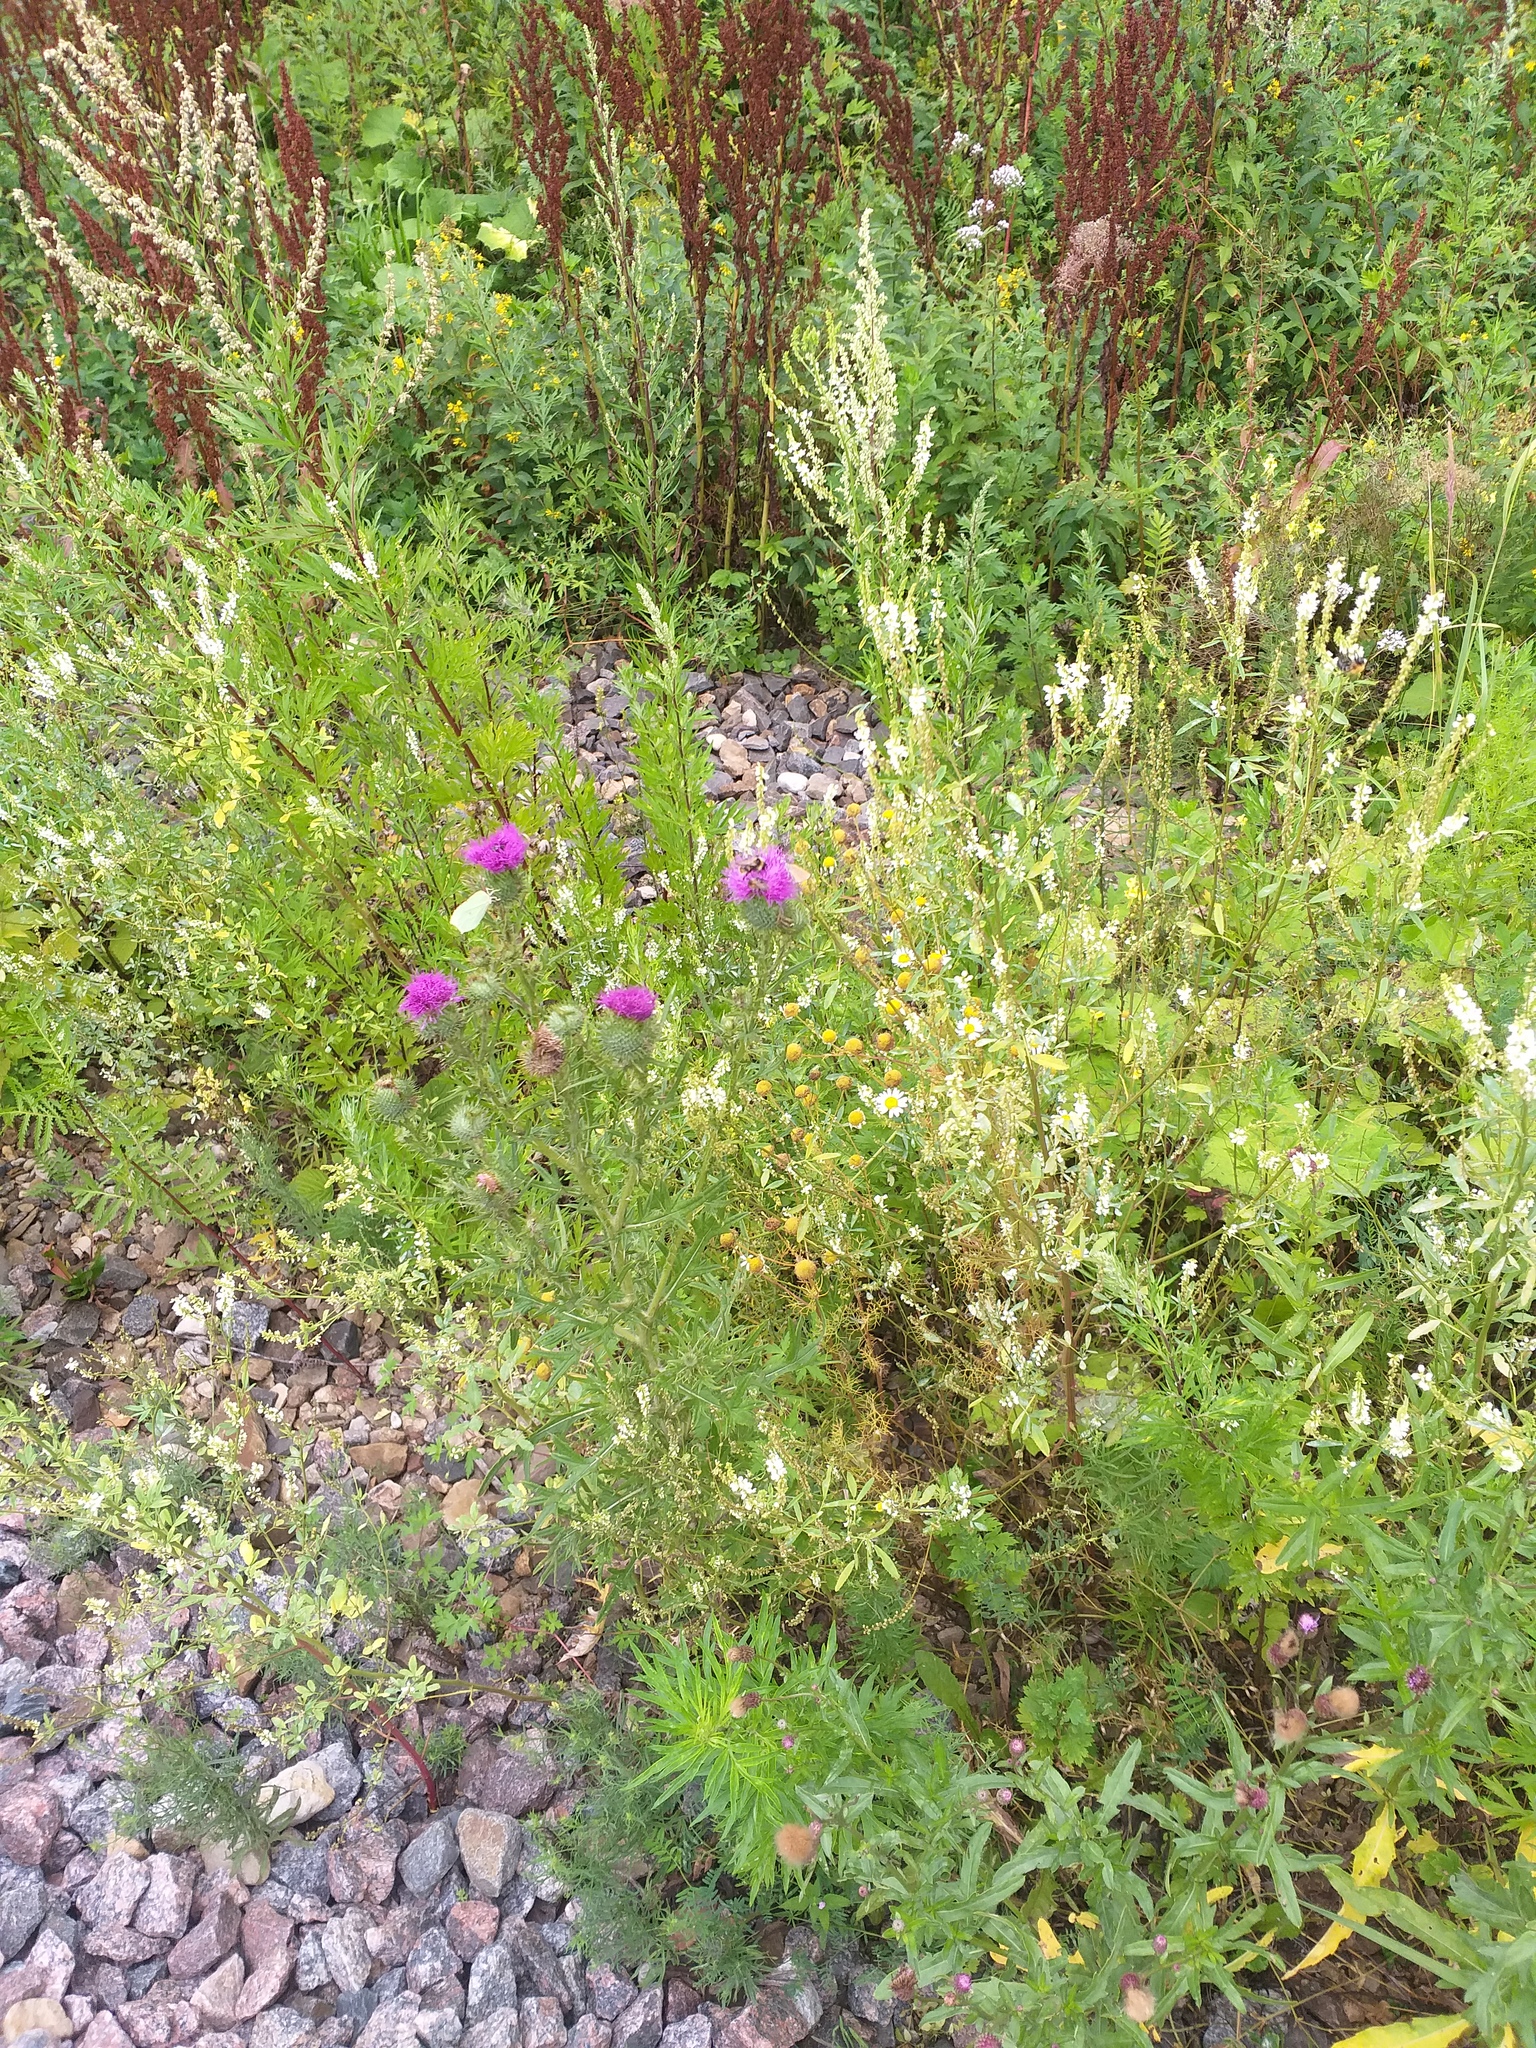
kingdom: Plantae
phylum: Tracheophyta
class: Magnoliopsida
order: Asterales
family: Asteraceae
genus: Cirsium
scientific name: Cirsium vulgare
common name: Bull thistle
